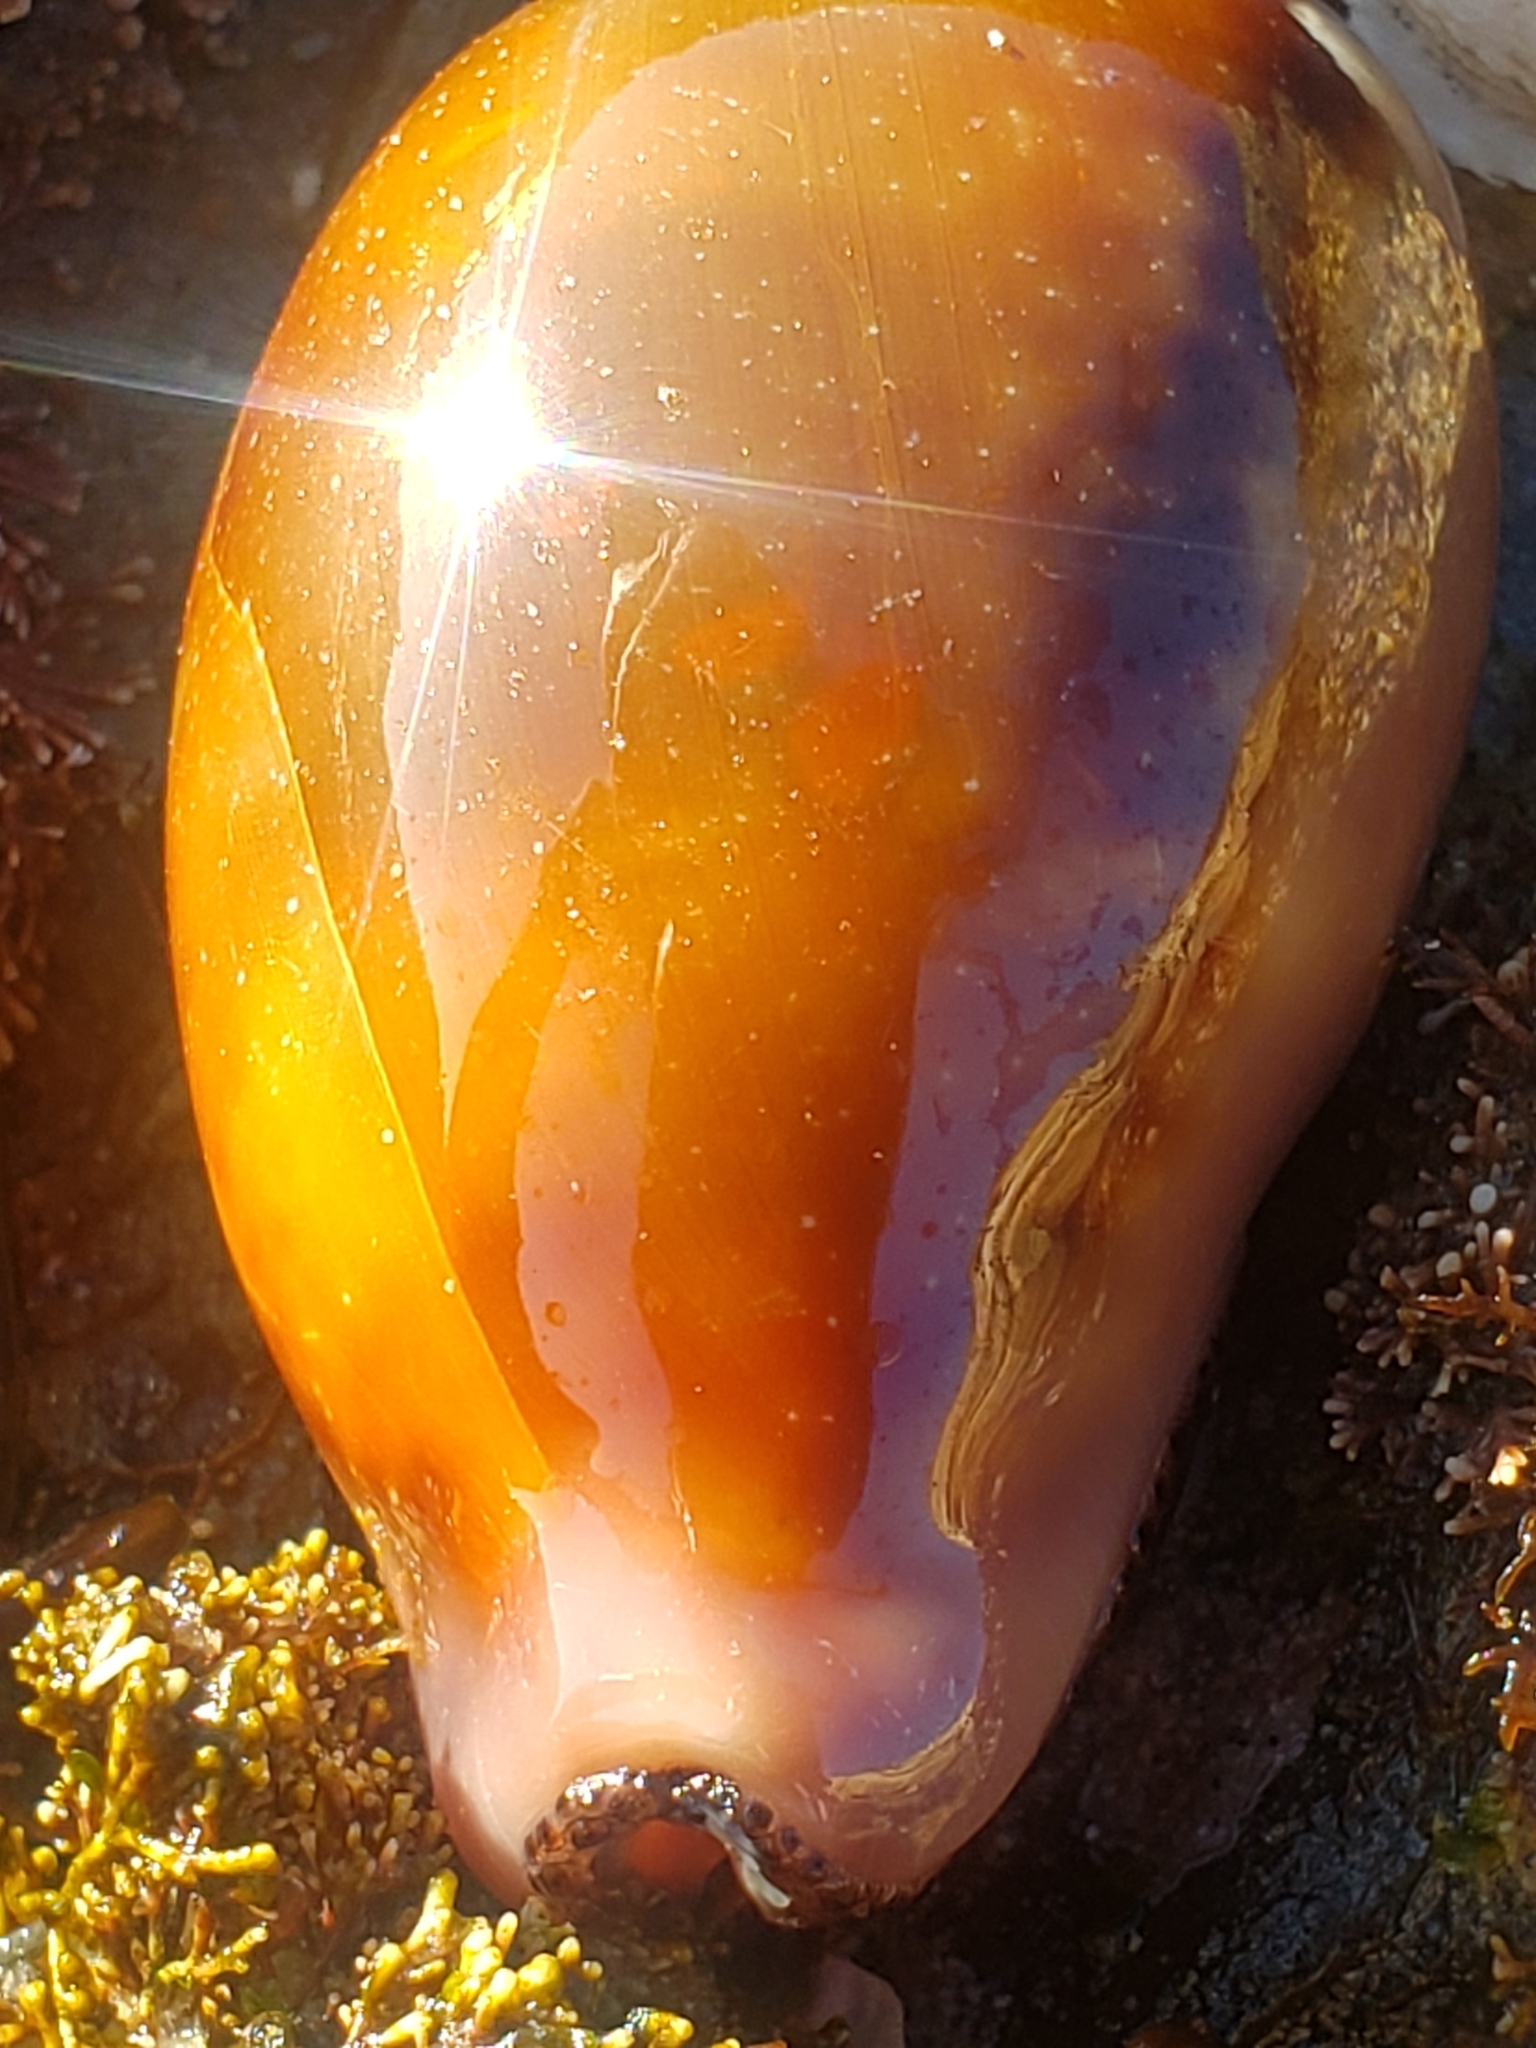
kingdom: Animalia
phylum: Mollusca
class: Gastropoda
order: Littorinimorpha
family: Cypraeidae
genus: Neobernaya
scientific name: Neobernaya spadicea
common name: Chestnut cowrie
